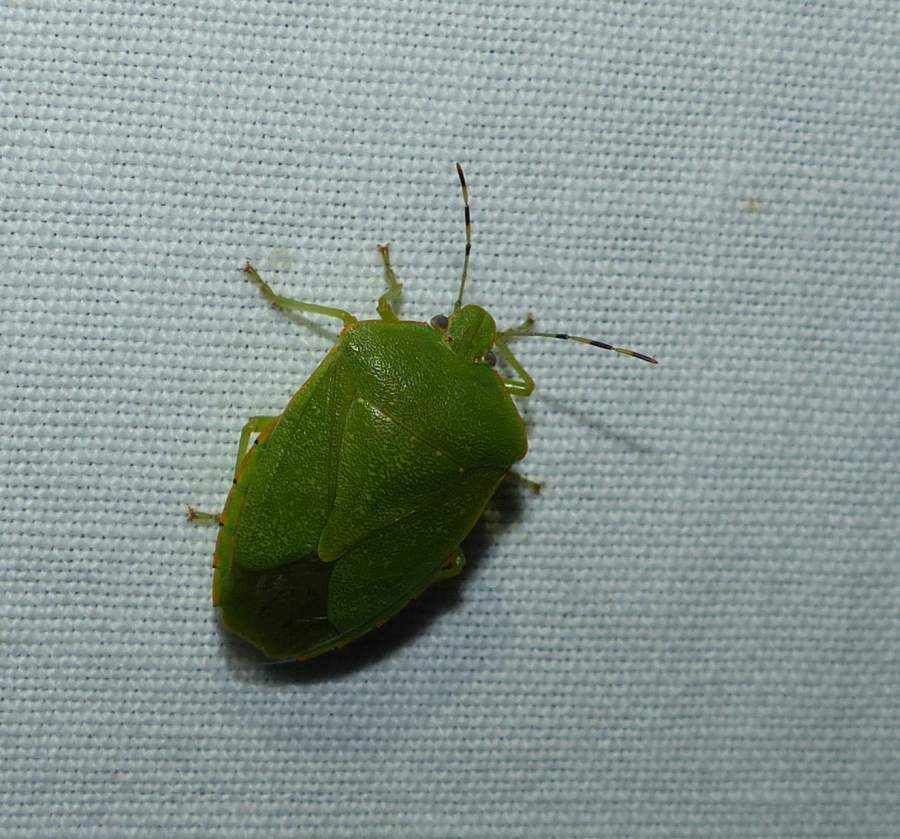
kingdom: Animalia
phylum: Arthropoda
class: Insecta
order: Hemiptera
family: Pentatomidae
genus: Chinavia
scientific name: Chinavia hilaris
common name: Green stink bug
